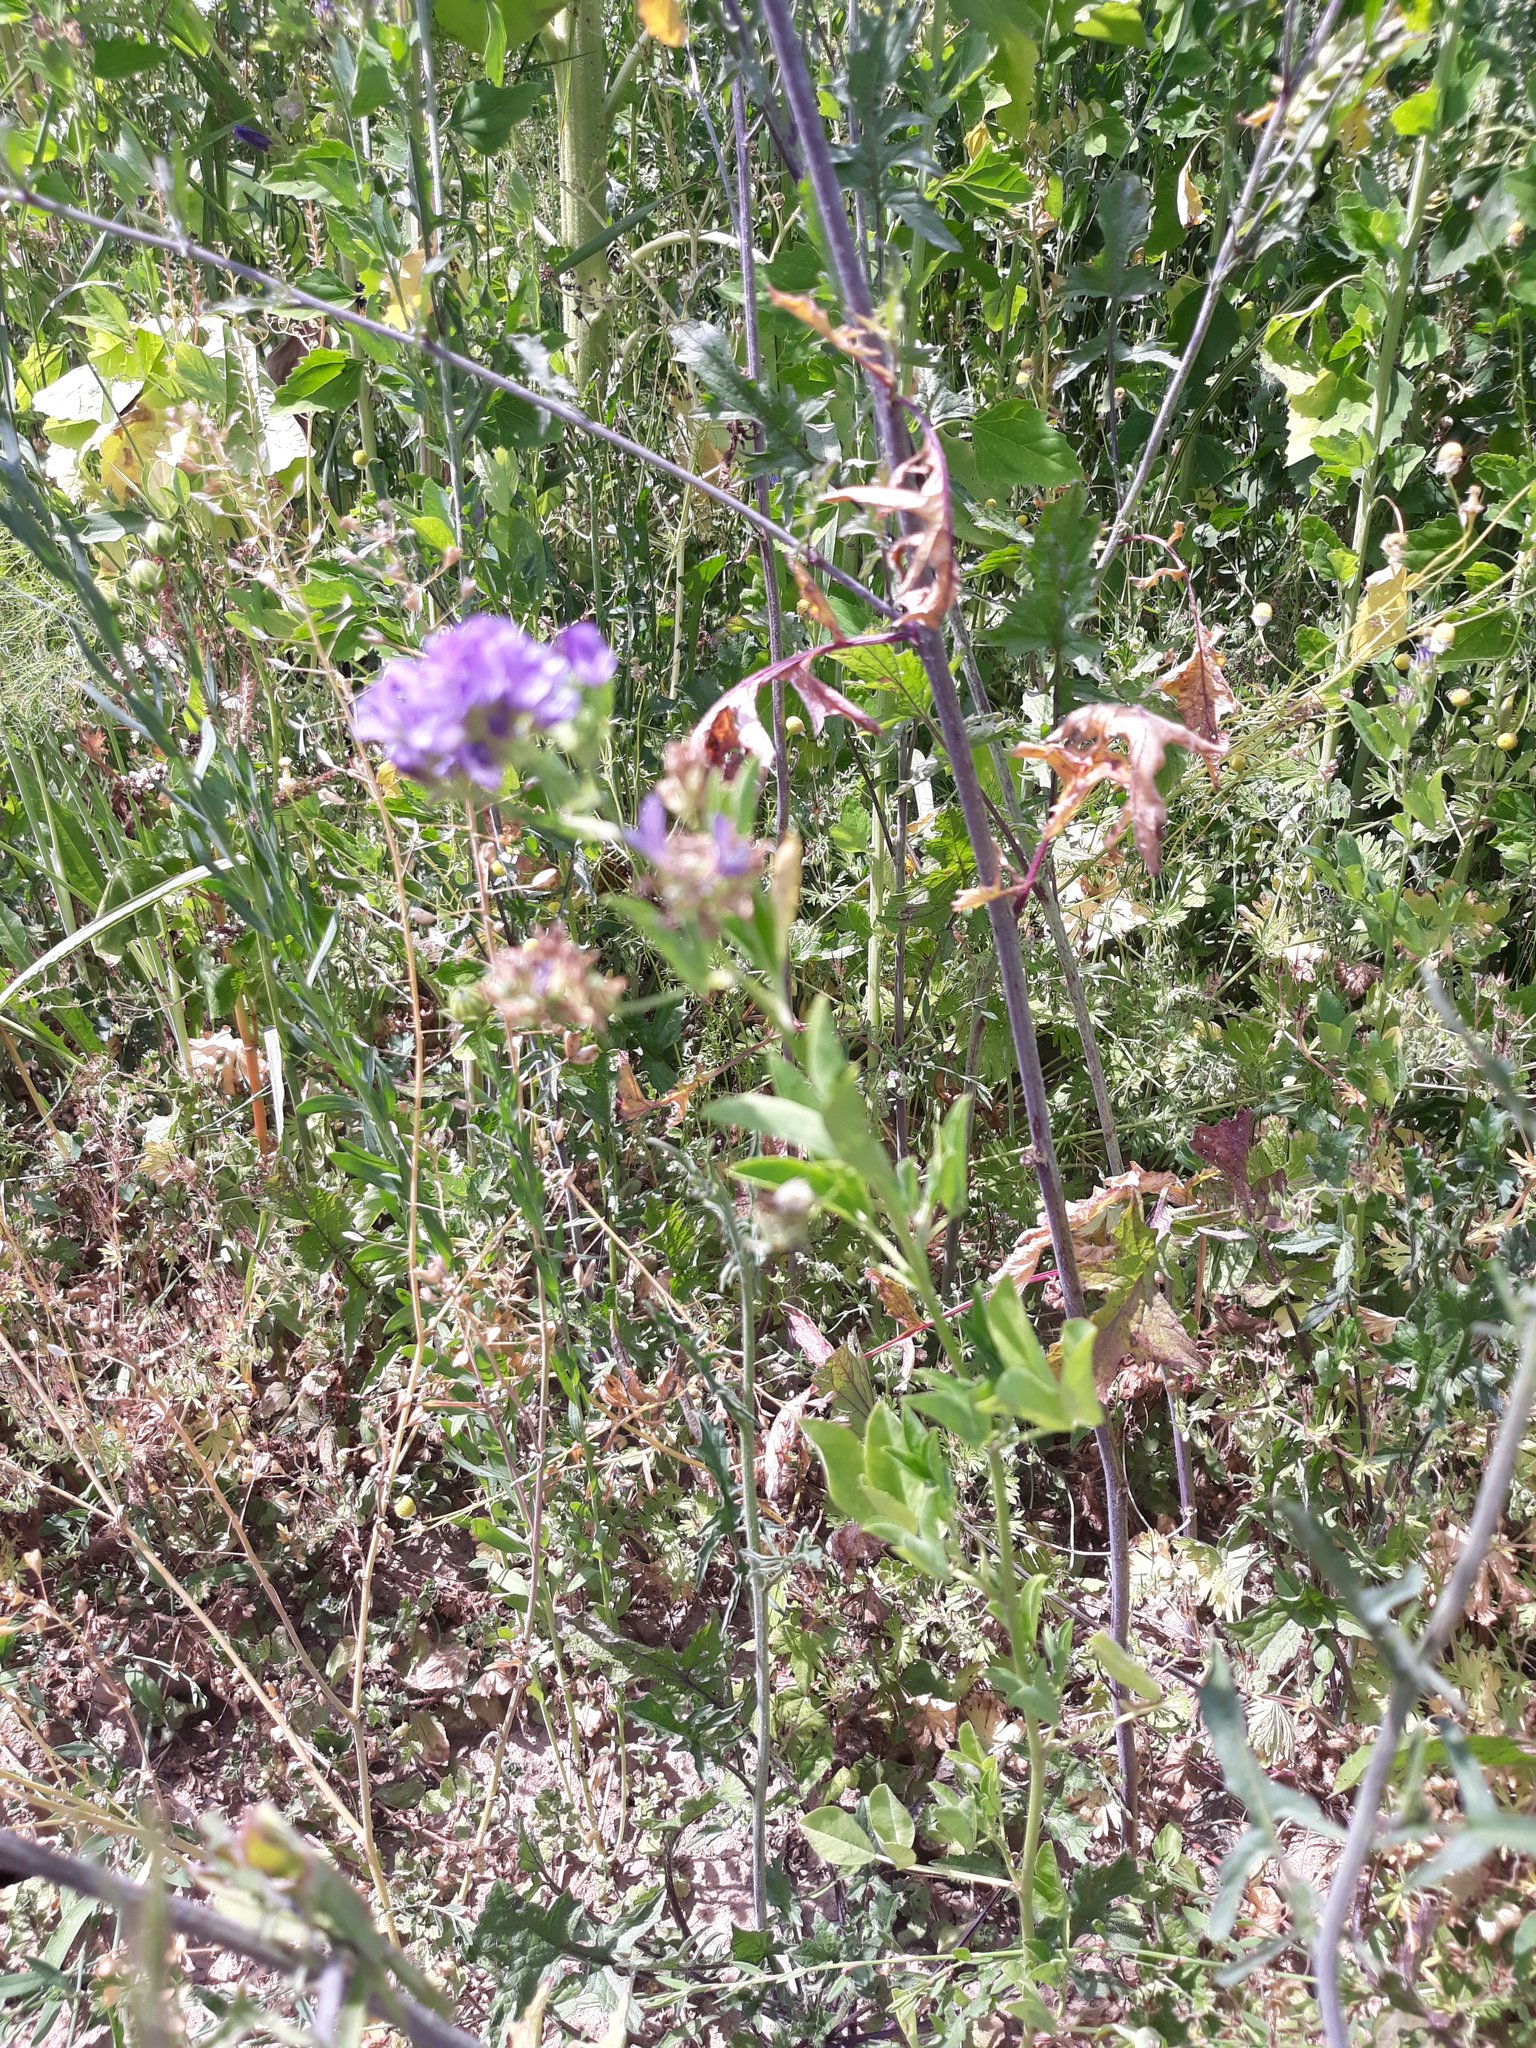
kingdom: Plantae
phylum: Tracheophyta
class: Magnoliopsida
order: Fabales
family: Fabaceae
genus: Medicago
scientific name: Medicago varia
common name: Sand lucerne
